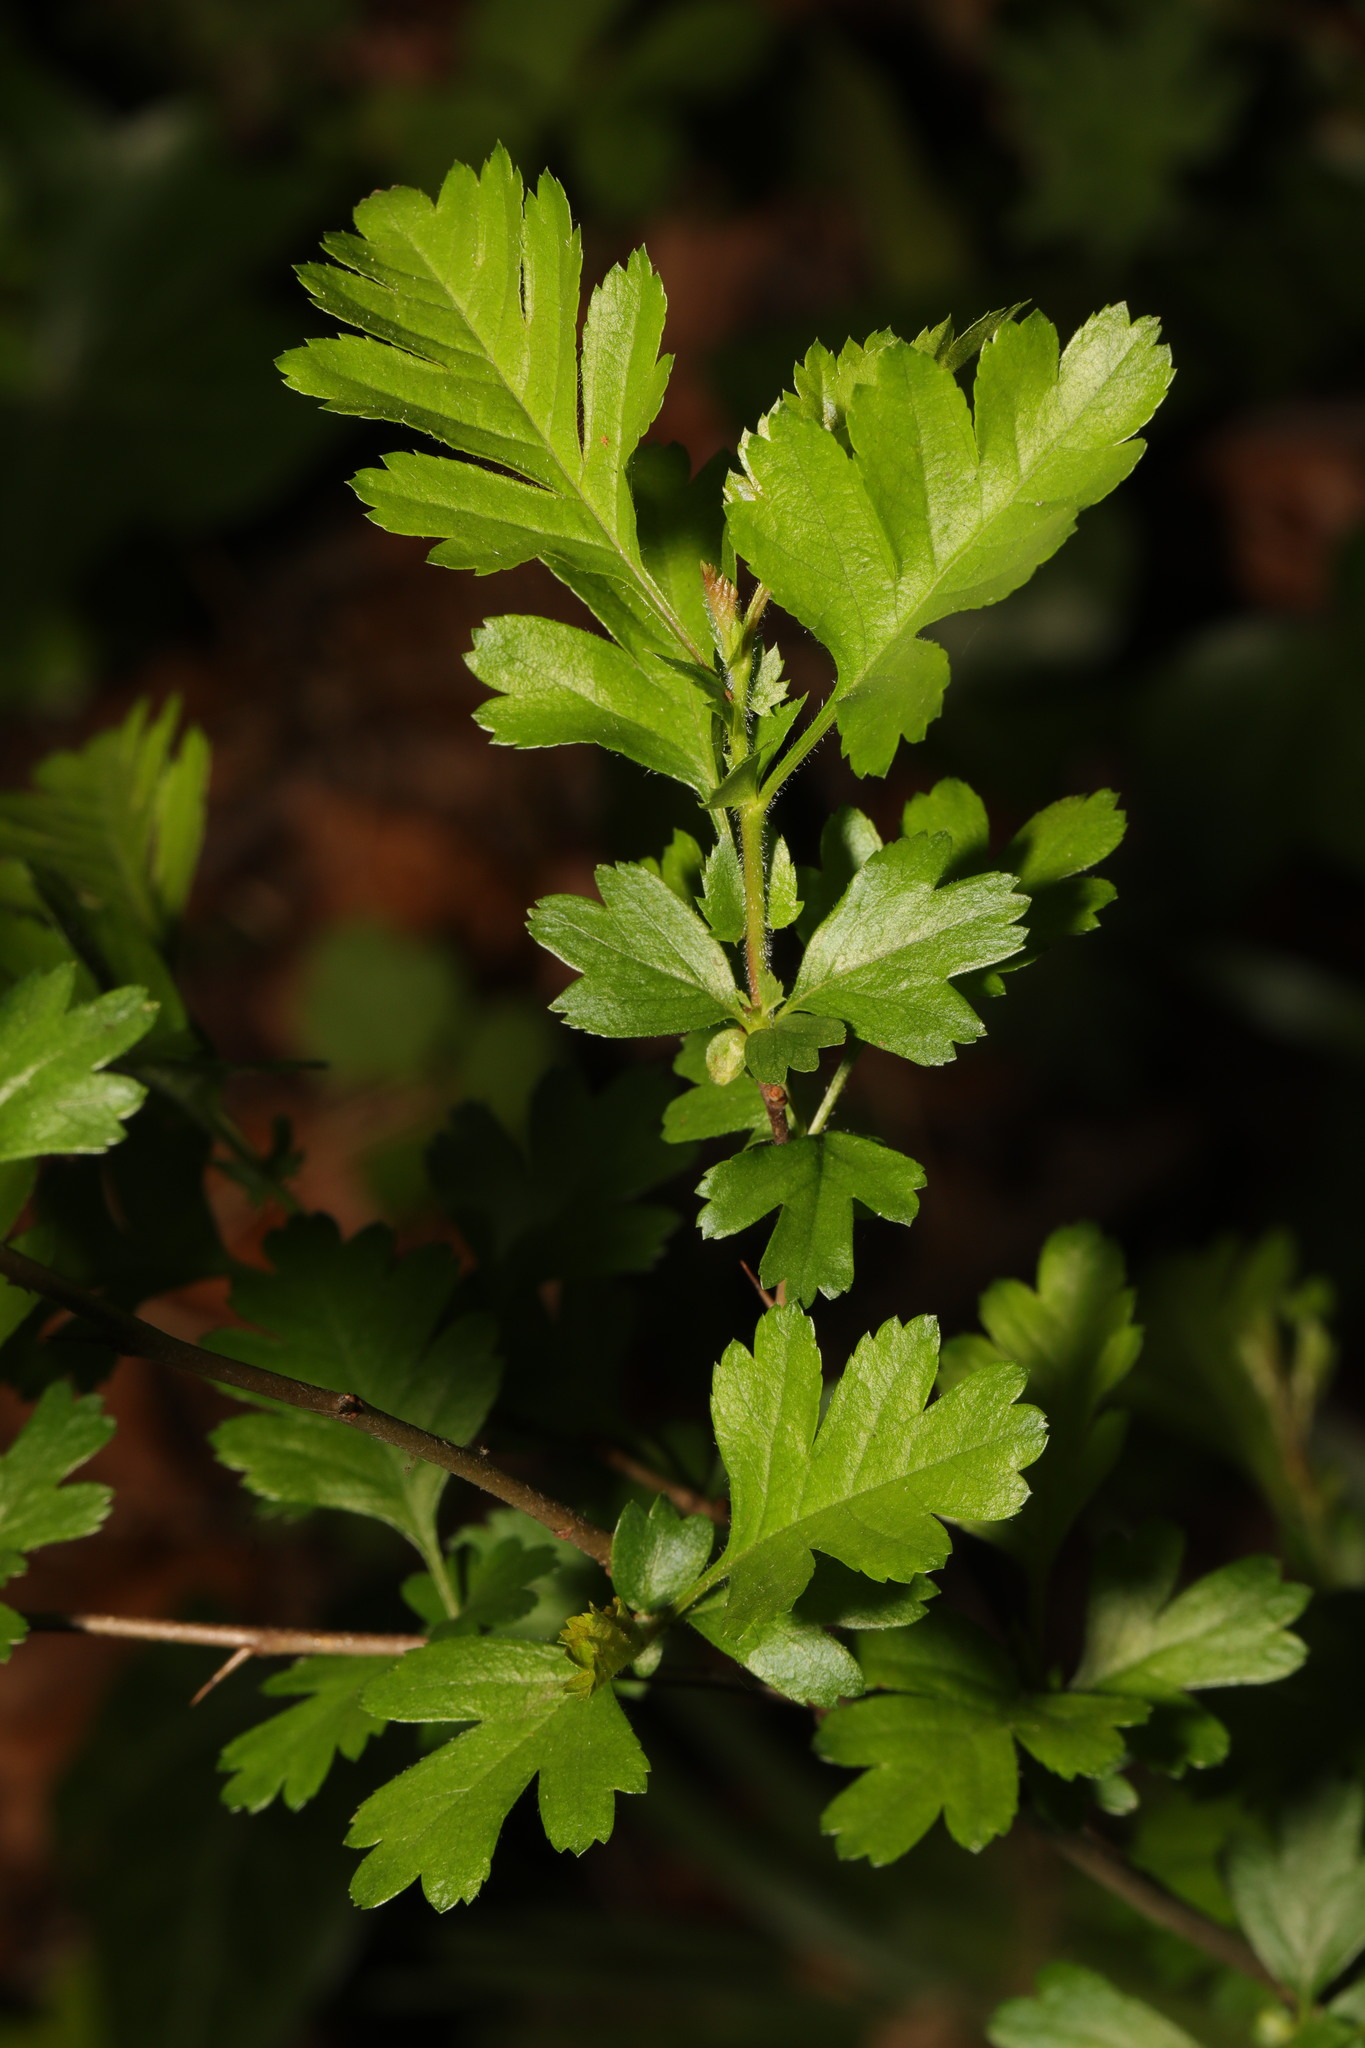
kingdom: Plantae
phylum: Tracheophyta
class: Magnoliopsida
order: Rosales
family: Rosaceae
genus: Crataegus
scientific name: Crataegus monogyna
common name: Hawthorn
